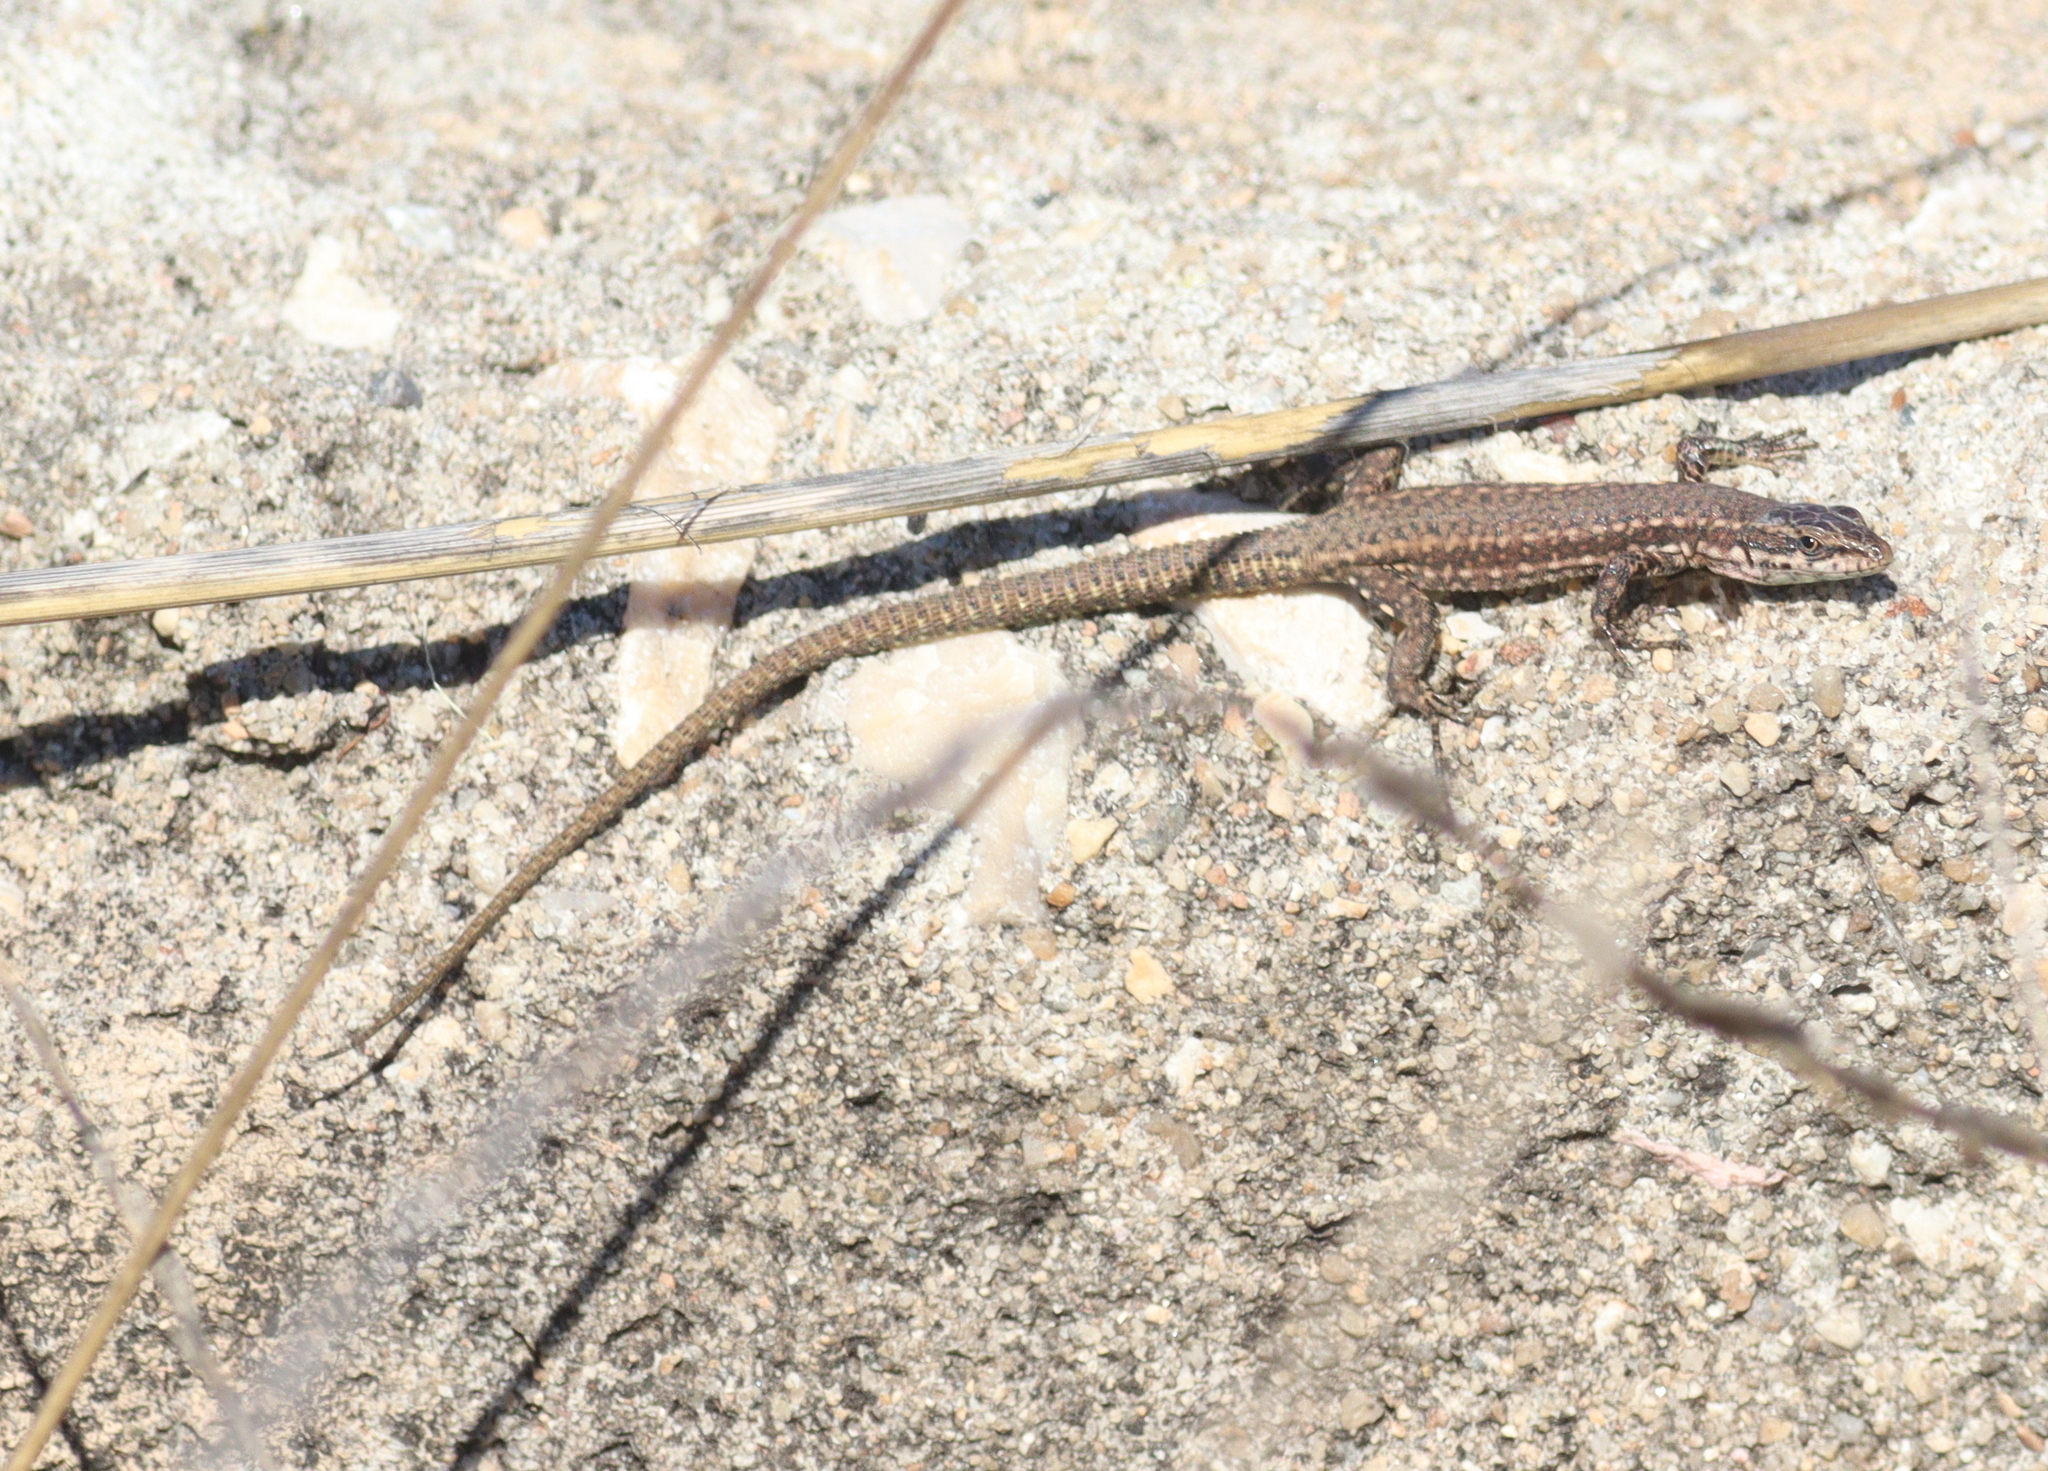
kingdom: Animalia
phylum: Chordata
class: Squamata
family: Lacertidae
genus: Podarcis
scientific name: Podarcis virescens
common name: Geniez’s wall lizard
